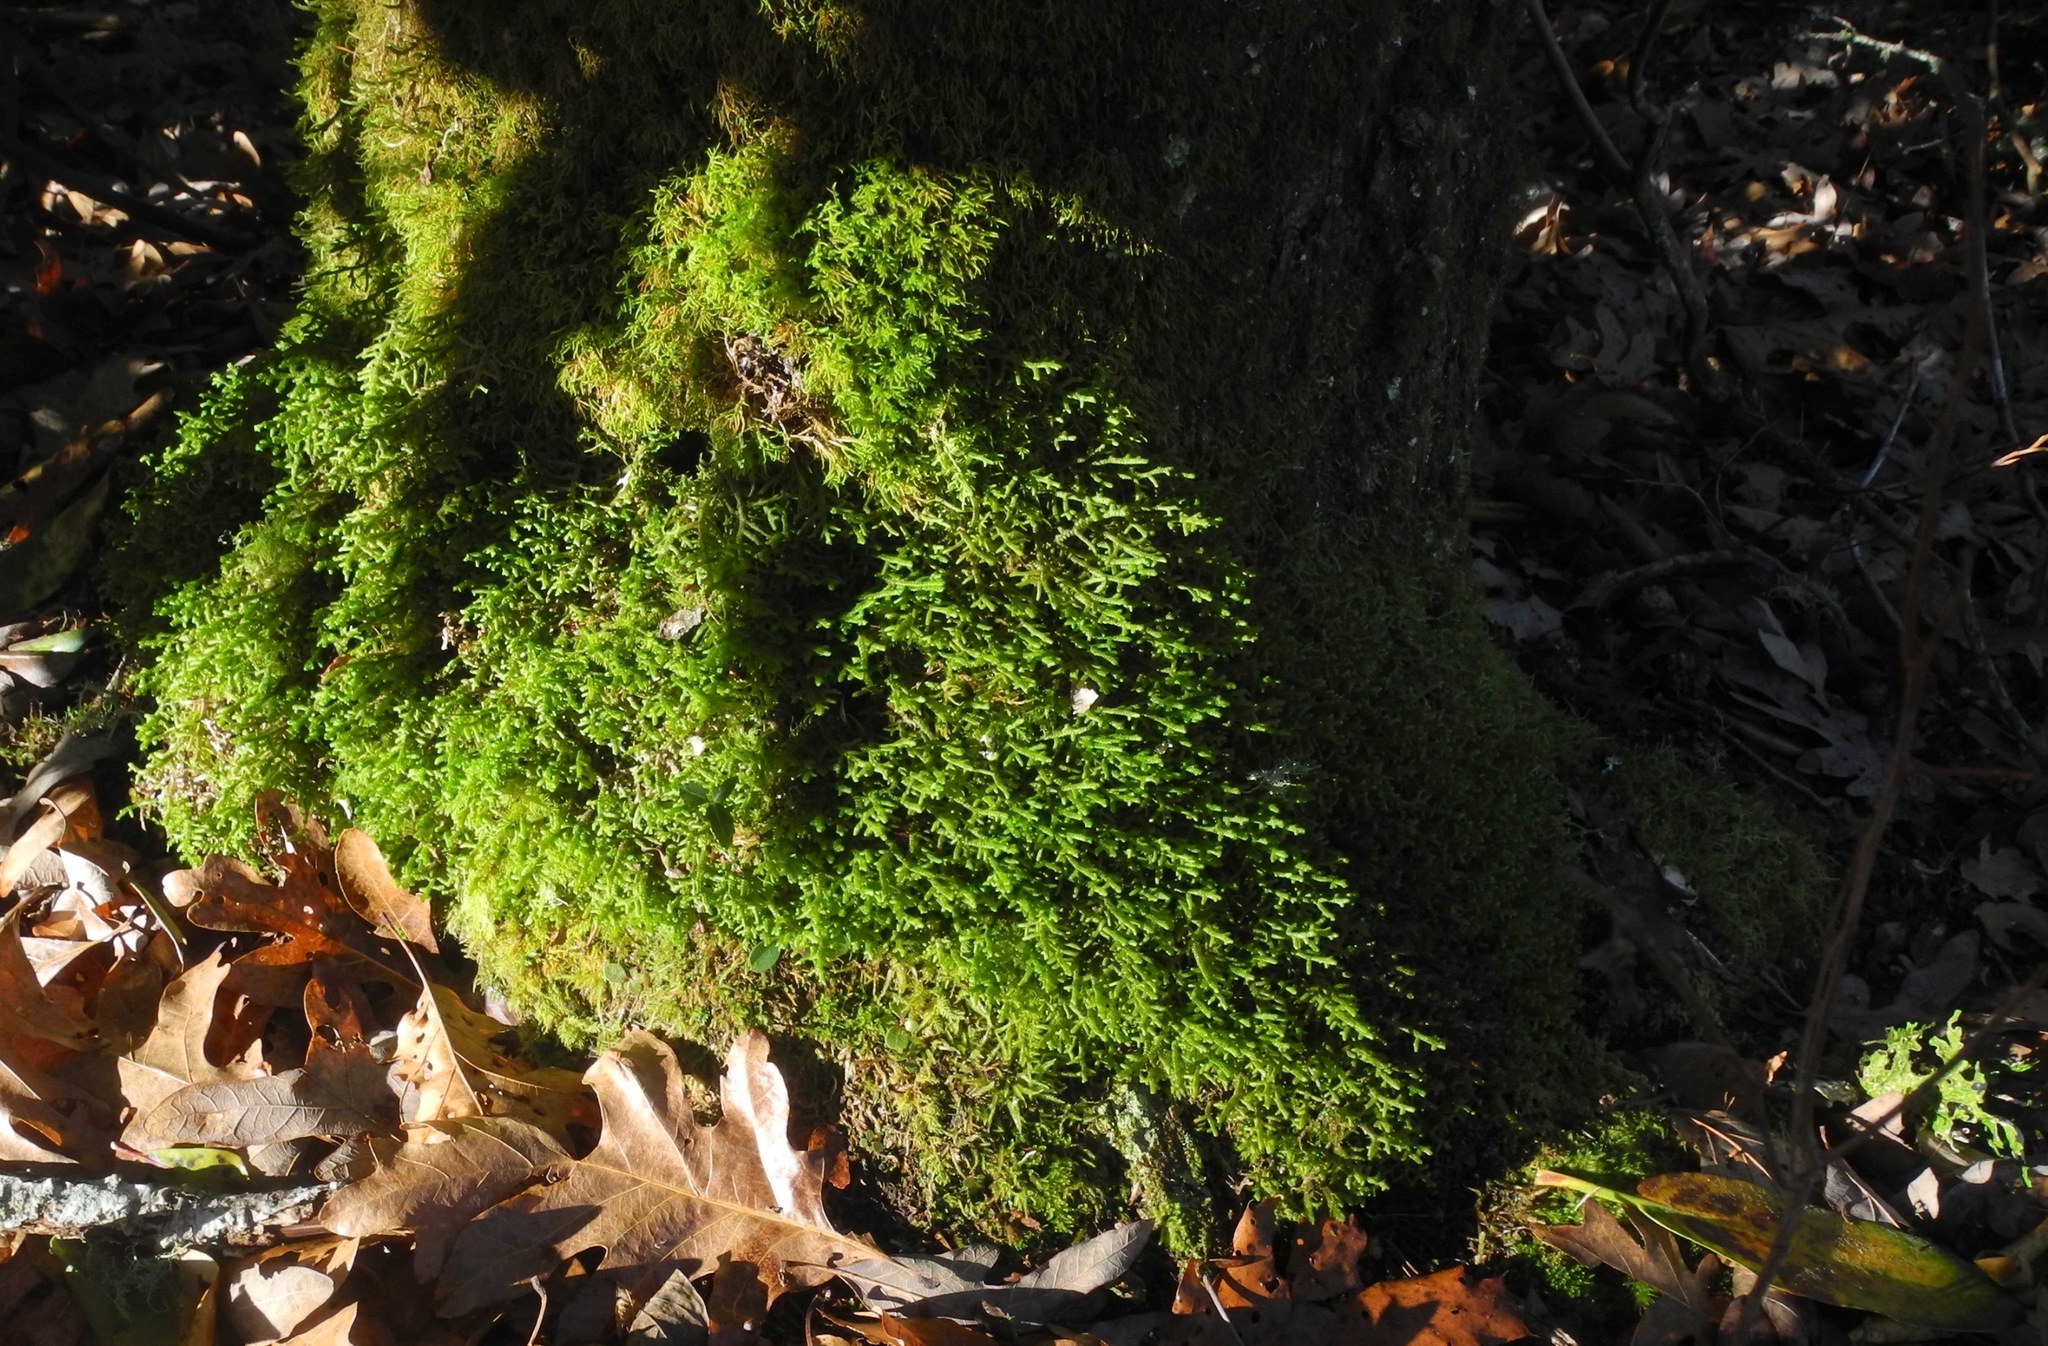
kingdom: Plantae
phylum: Marchantiophyta
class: Jungermanniopsida
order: Porellales
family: Porellaceae
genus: Porella
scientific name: Porella platyphylla
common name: Wall scalewort
